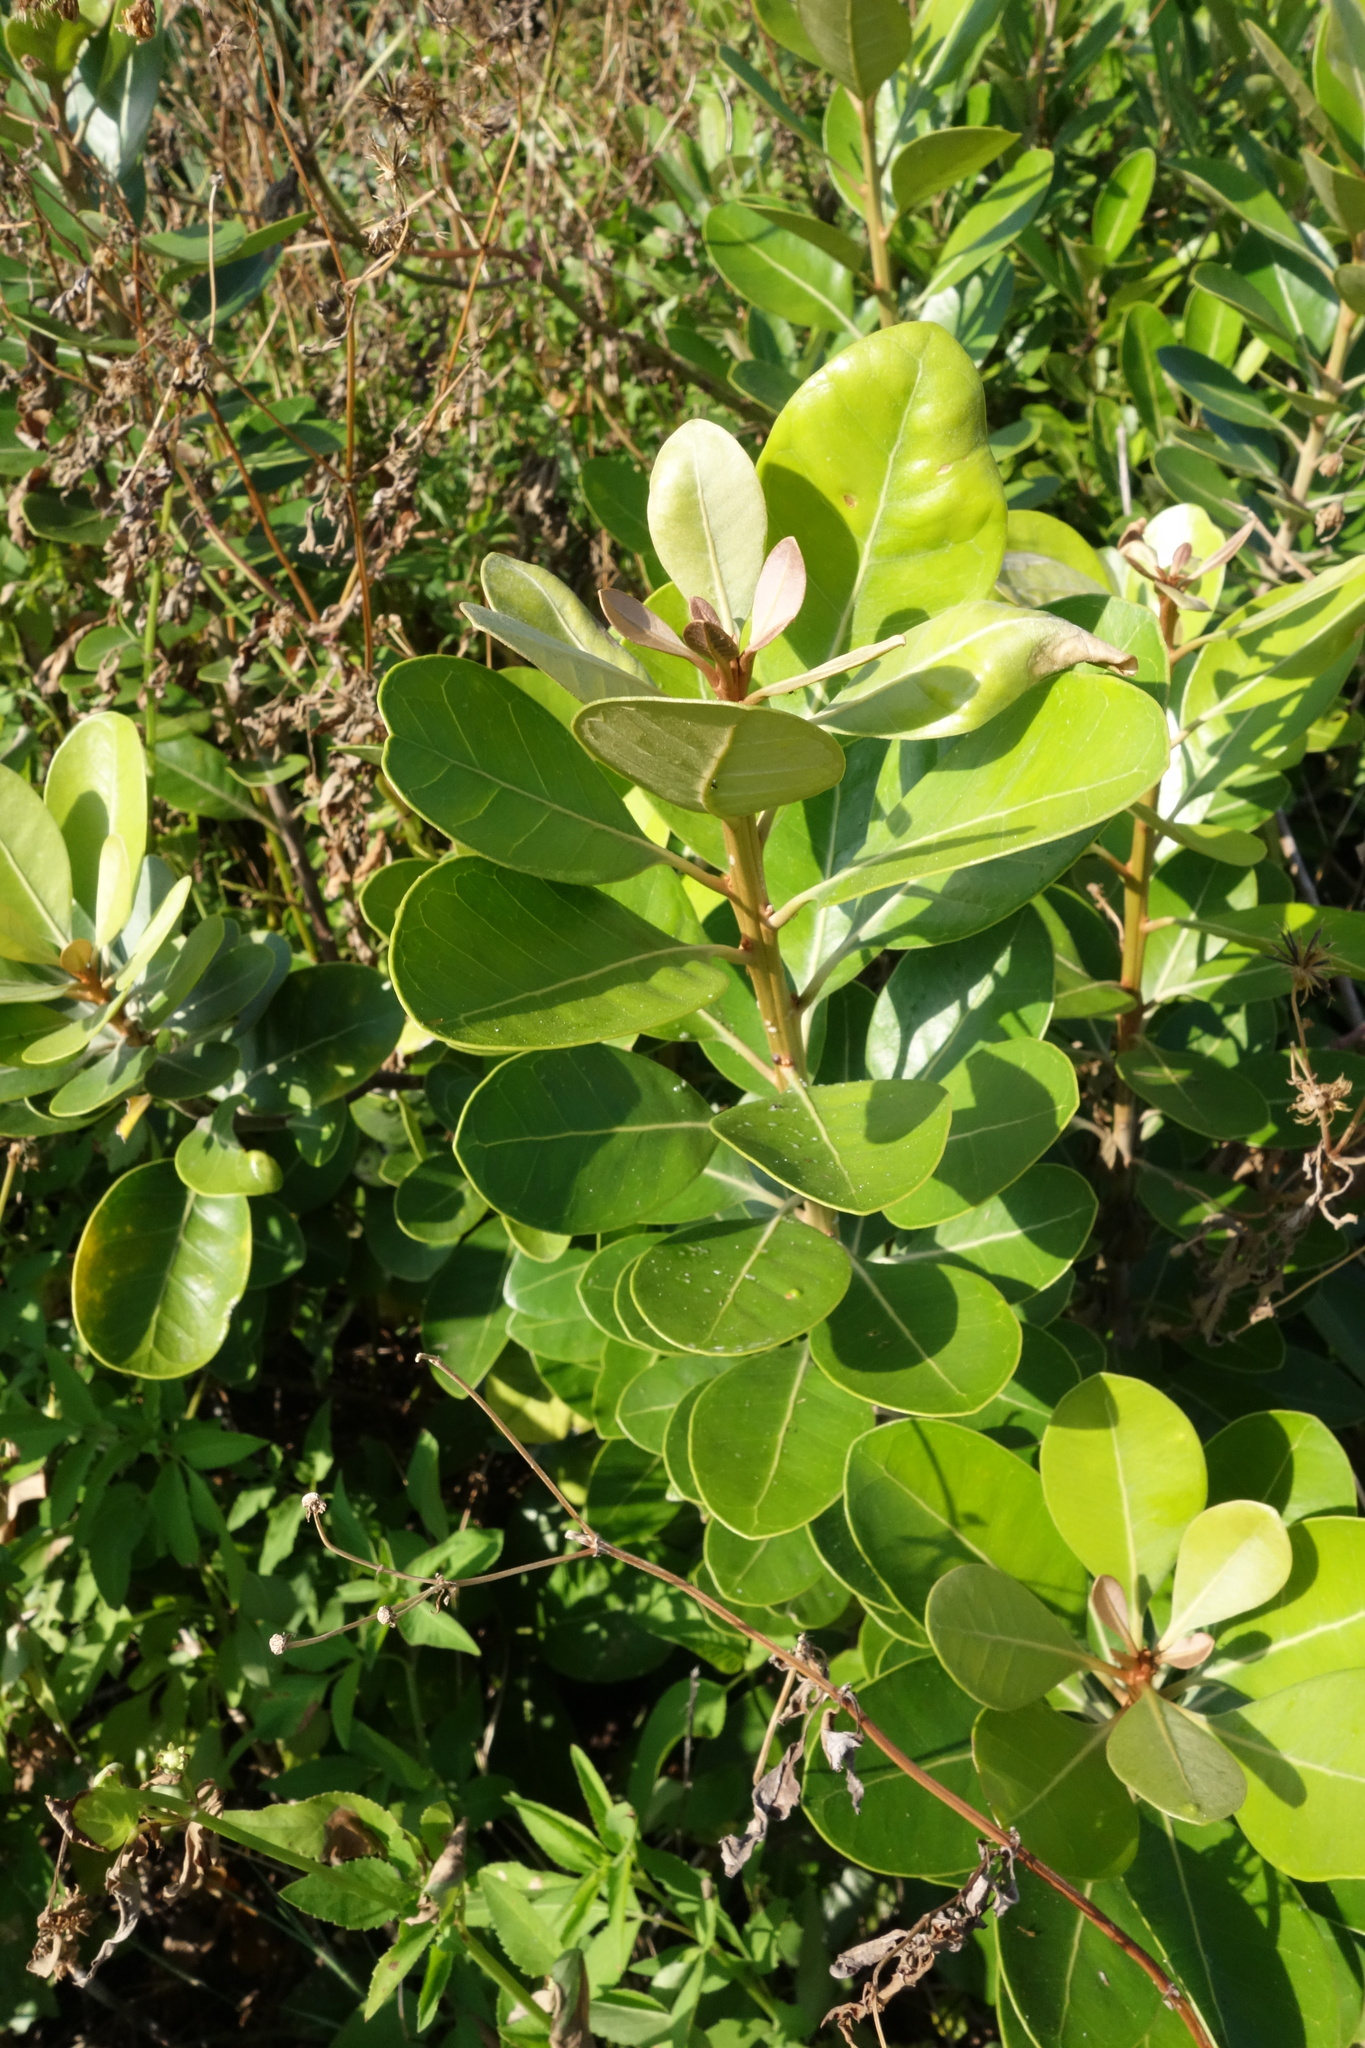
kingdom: Plantae
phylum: Tracheophyta
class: Magnoliopsida
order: Malpighiales
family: Calophyllaceae
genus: Calophyllum
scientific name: Calophyllum inophyllum
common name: Alexandrian laurel
